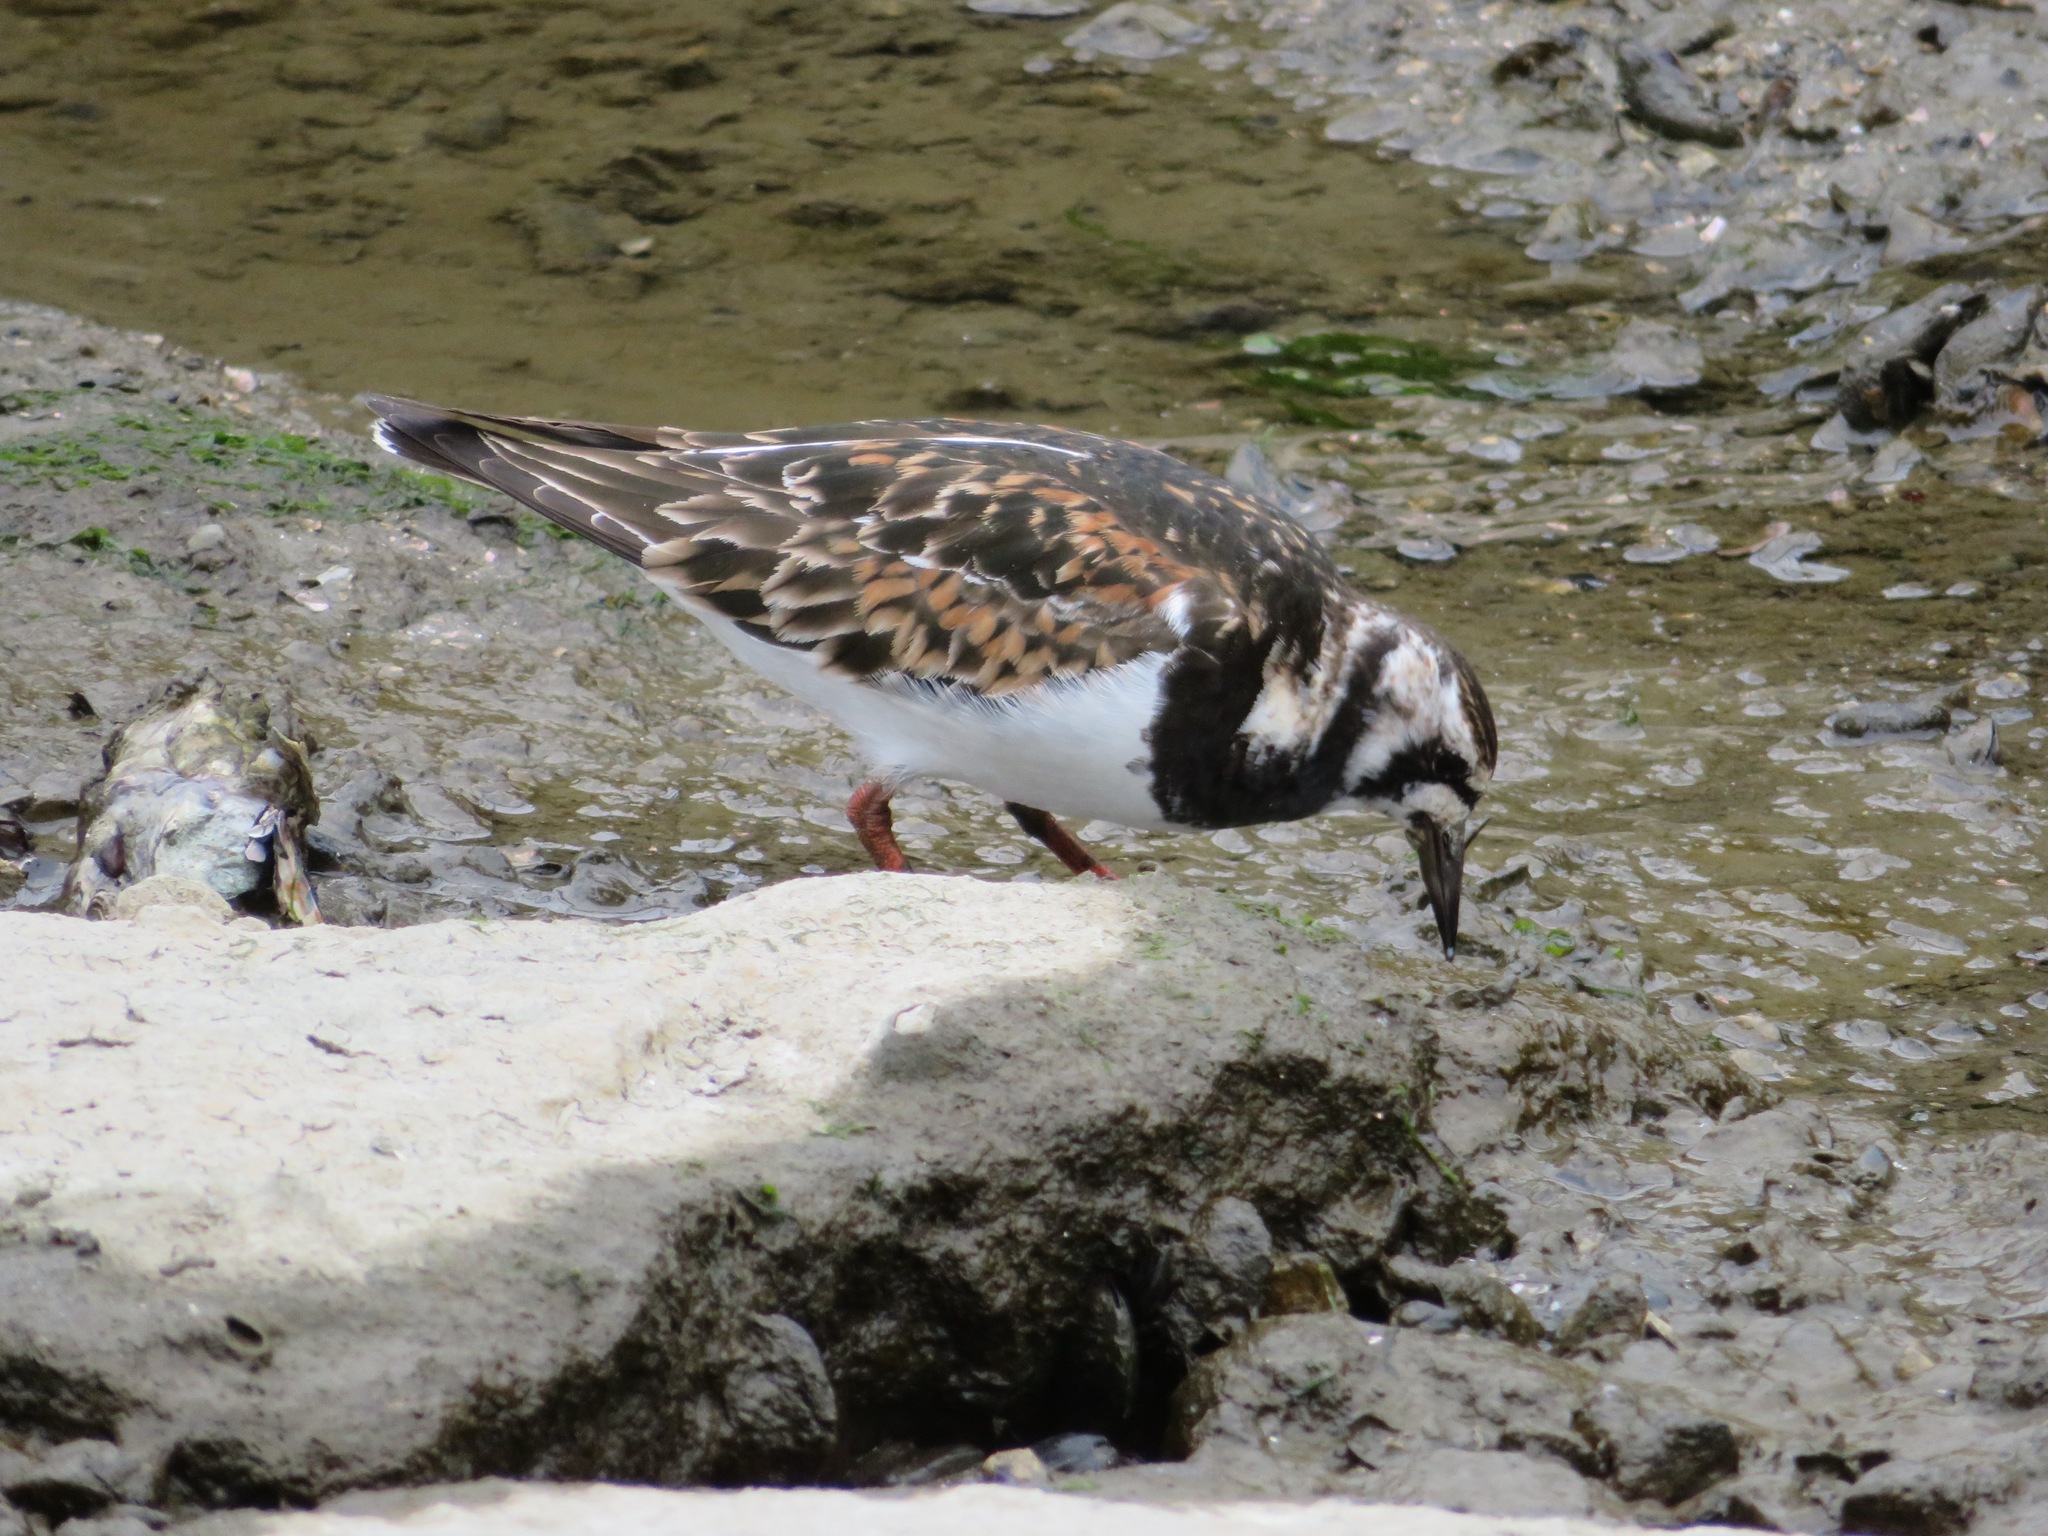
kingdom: Animalia
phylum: Chordata
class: Aves
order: Charadriiformes
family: Scolopacidae
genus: Arenaria
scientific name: Arenaria interpres
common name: Ruddy turnstone
